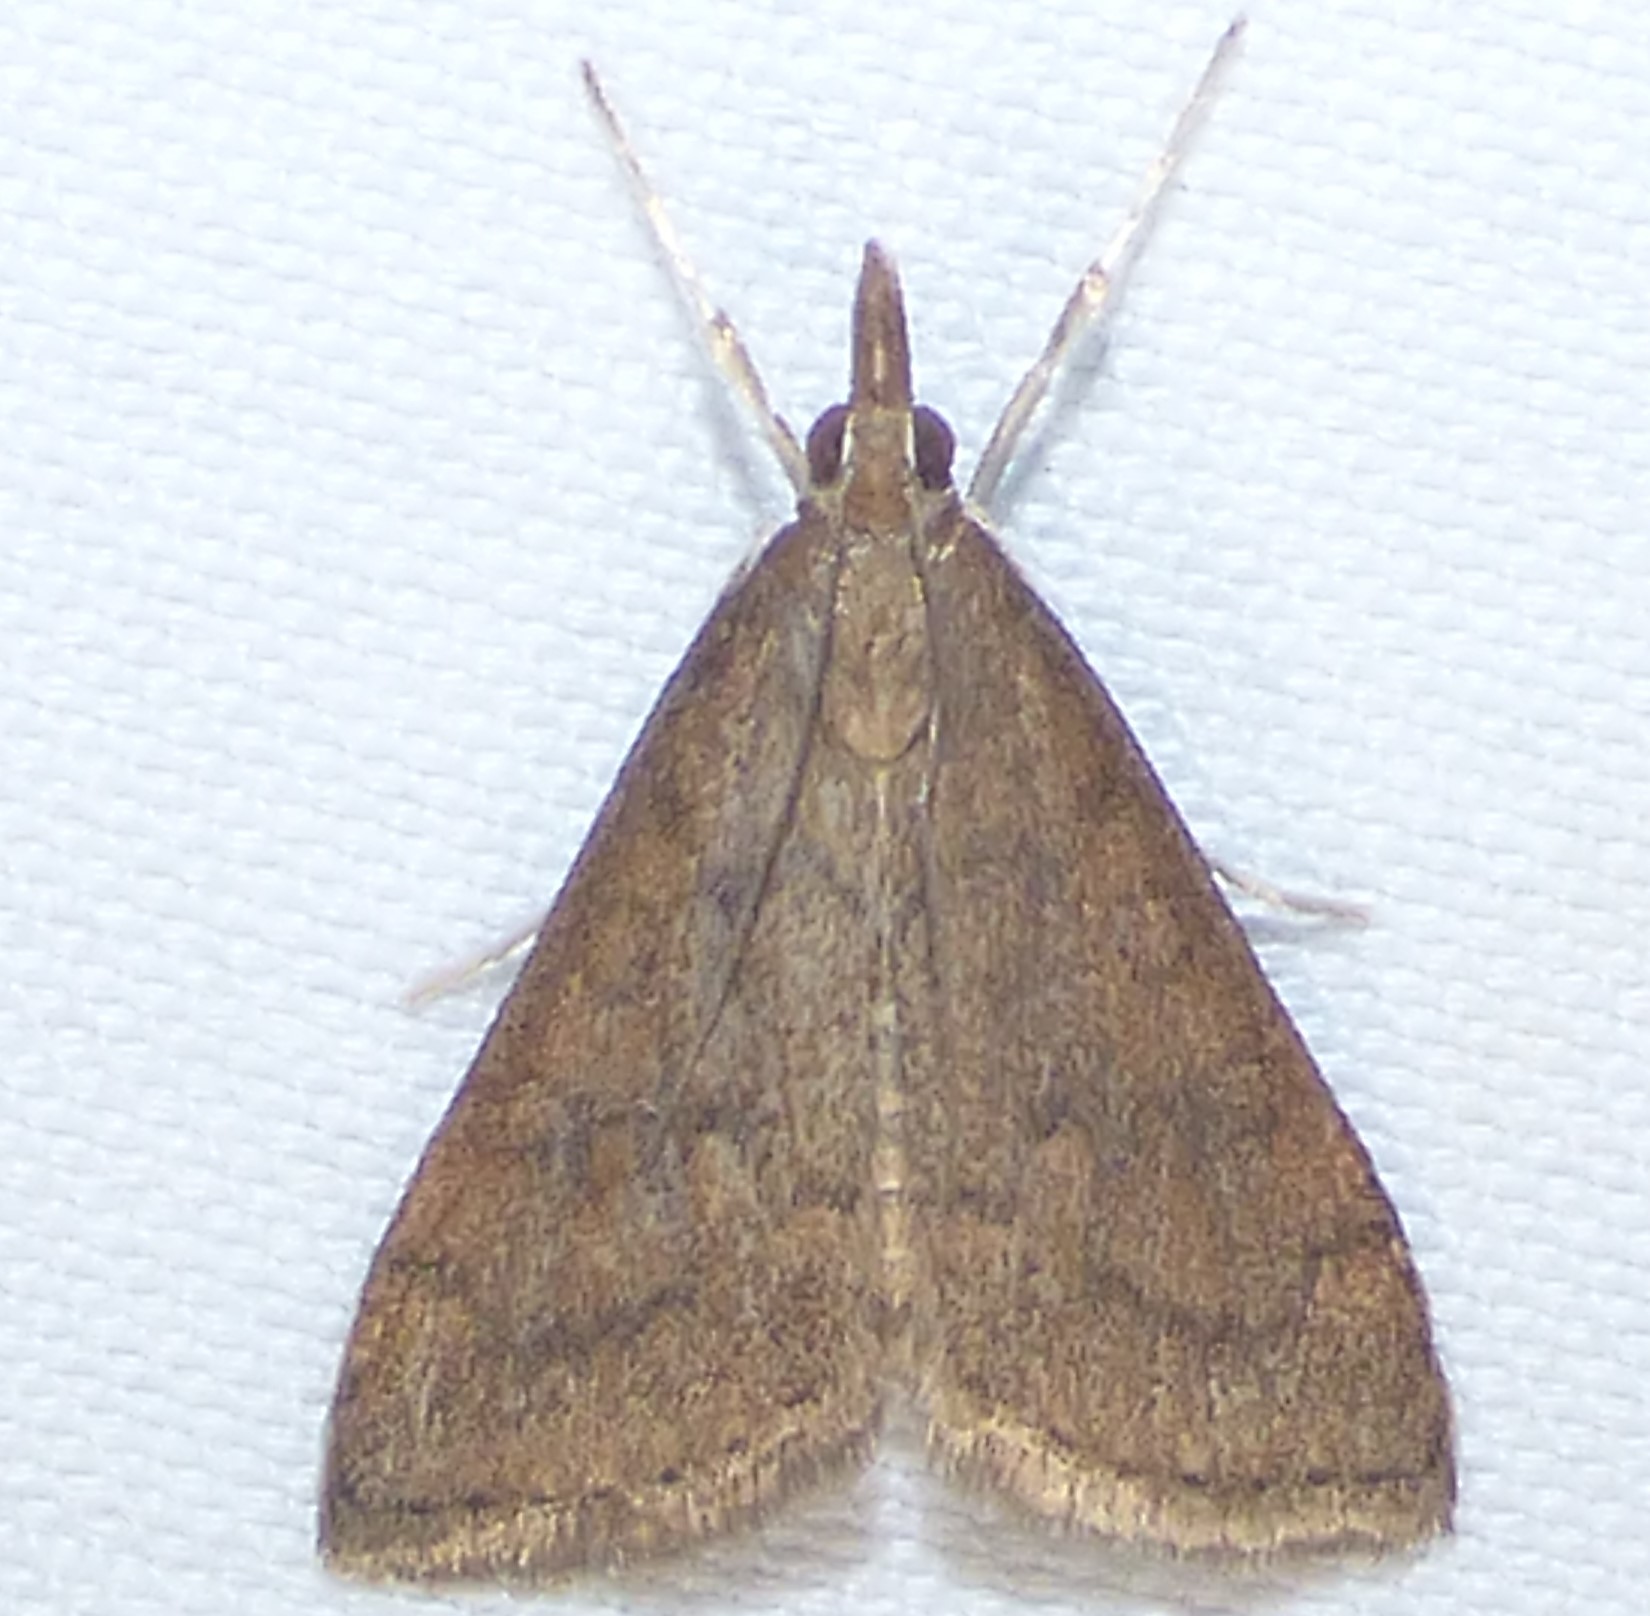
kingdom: Animalia
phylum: Arthropoda
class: Insecta
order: Lepidoptera
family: Crambidae
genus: Udea
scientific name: Udea rubigalis
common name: Celery leaftier moth
